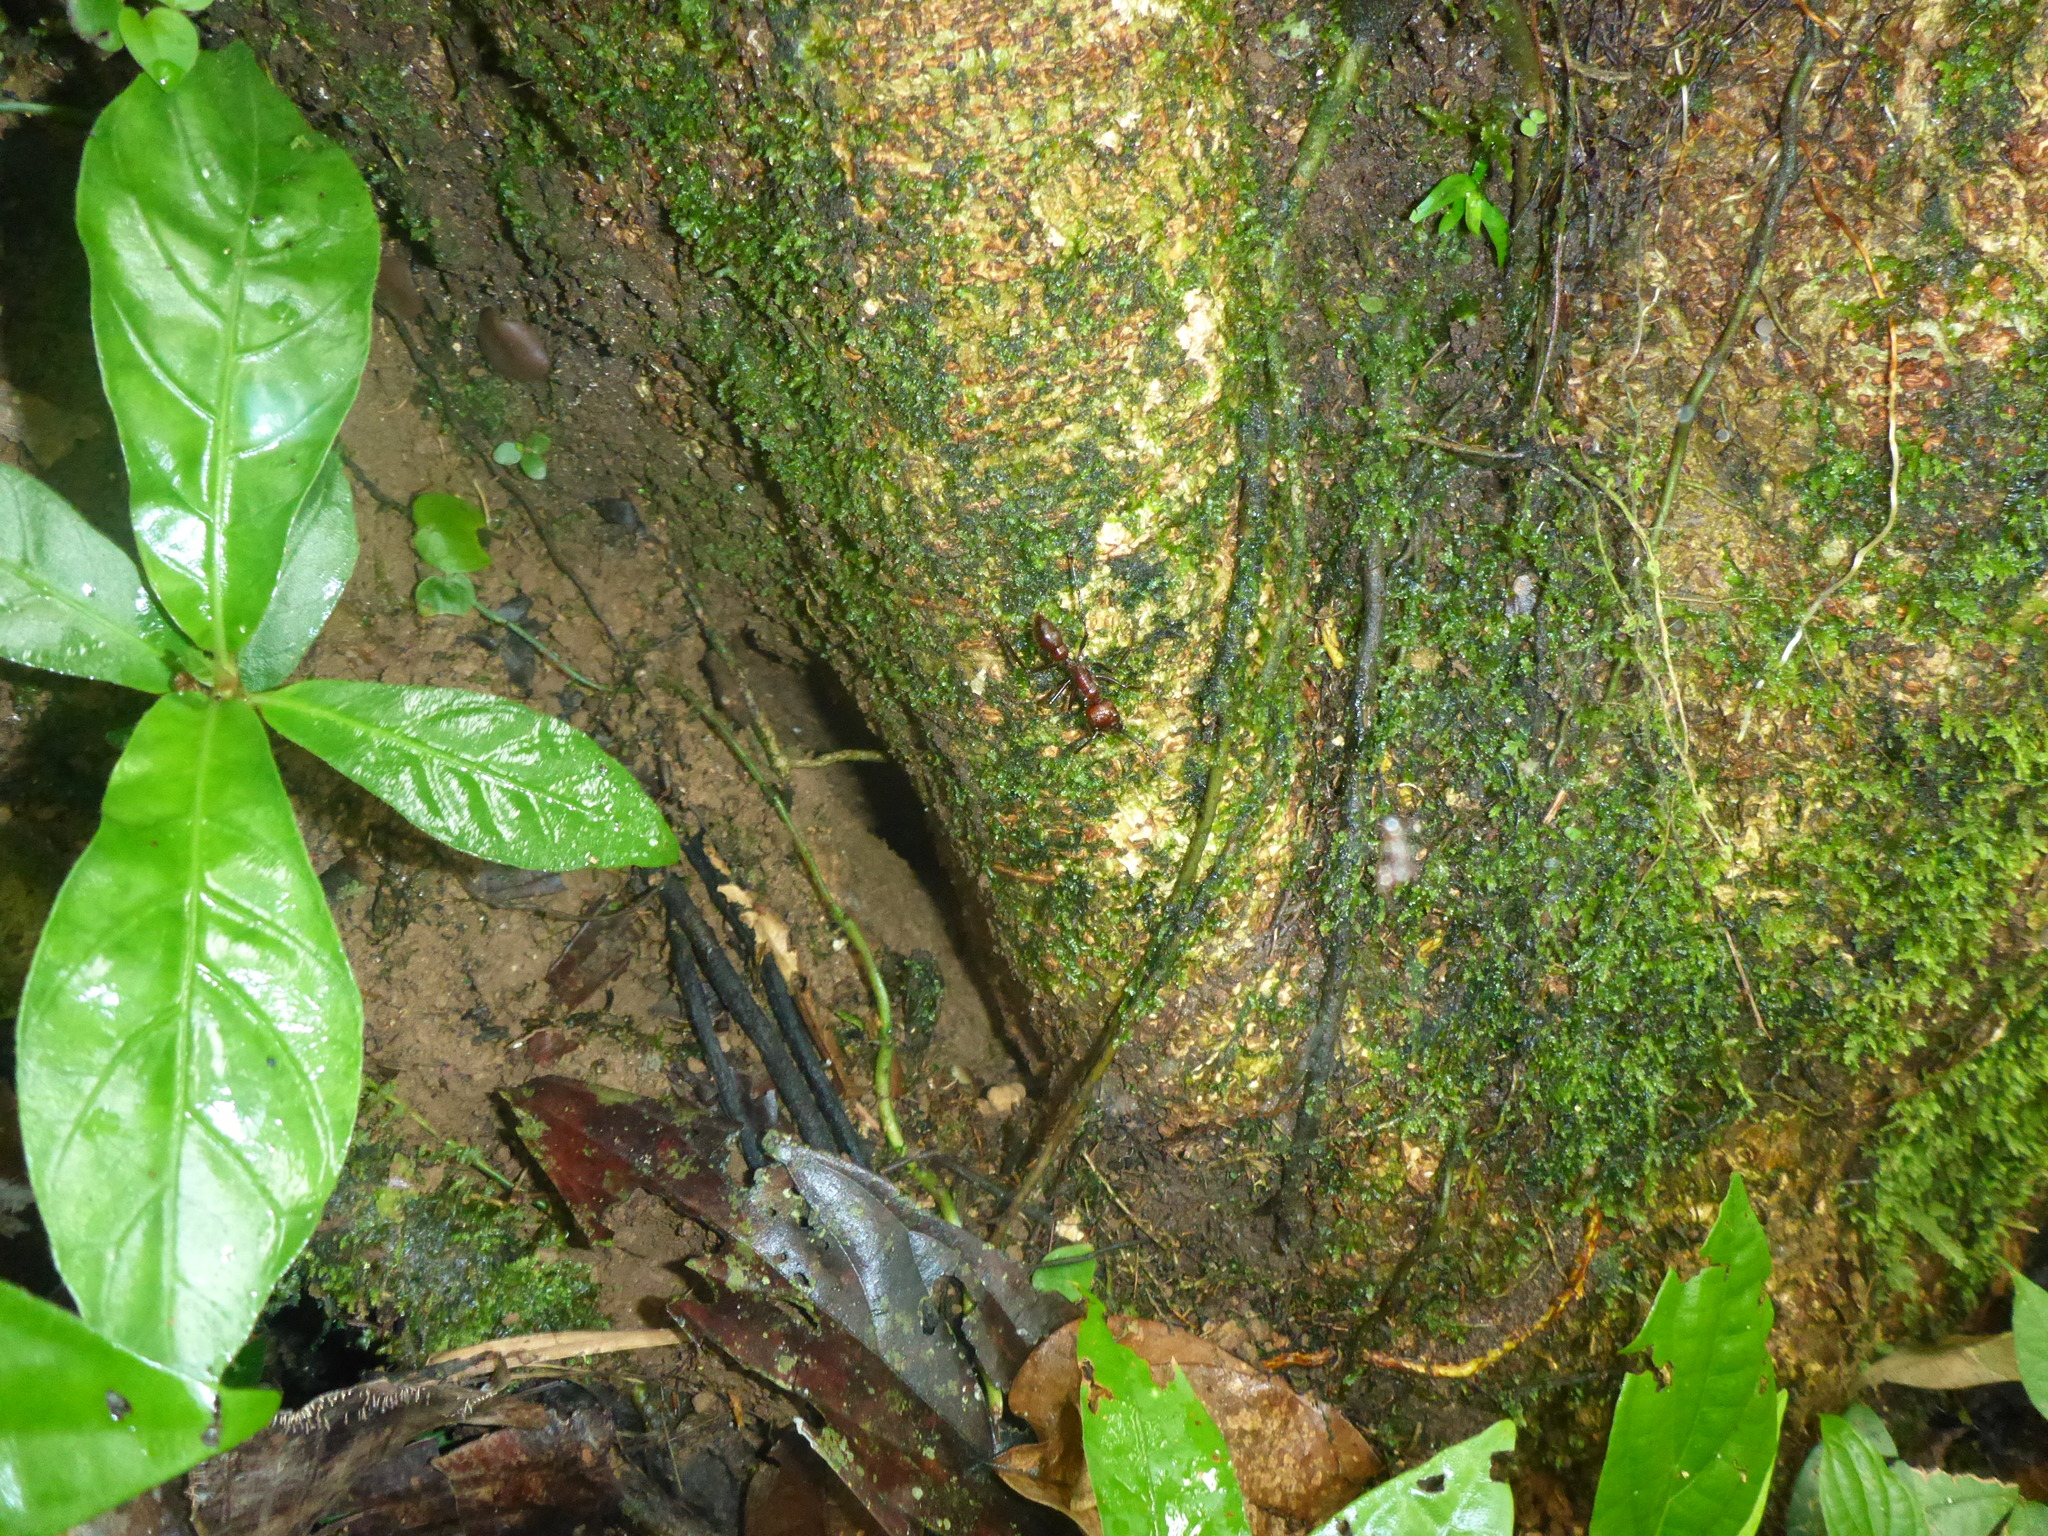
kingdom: Animalia
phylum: Arthropoda
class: Insecta
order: Hymenoptera
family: Formicidae
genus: Paraponera
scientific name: Paraponera clavata
